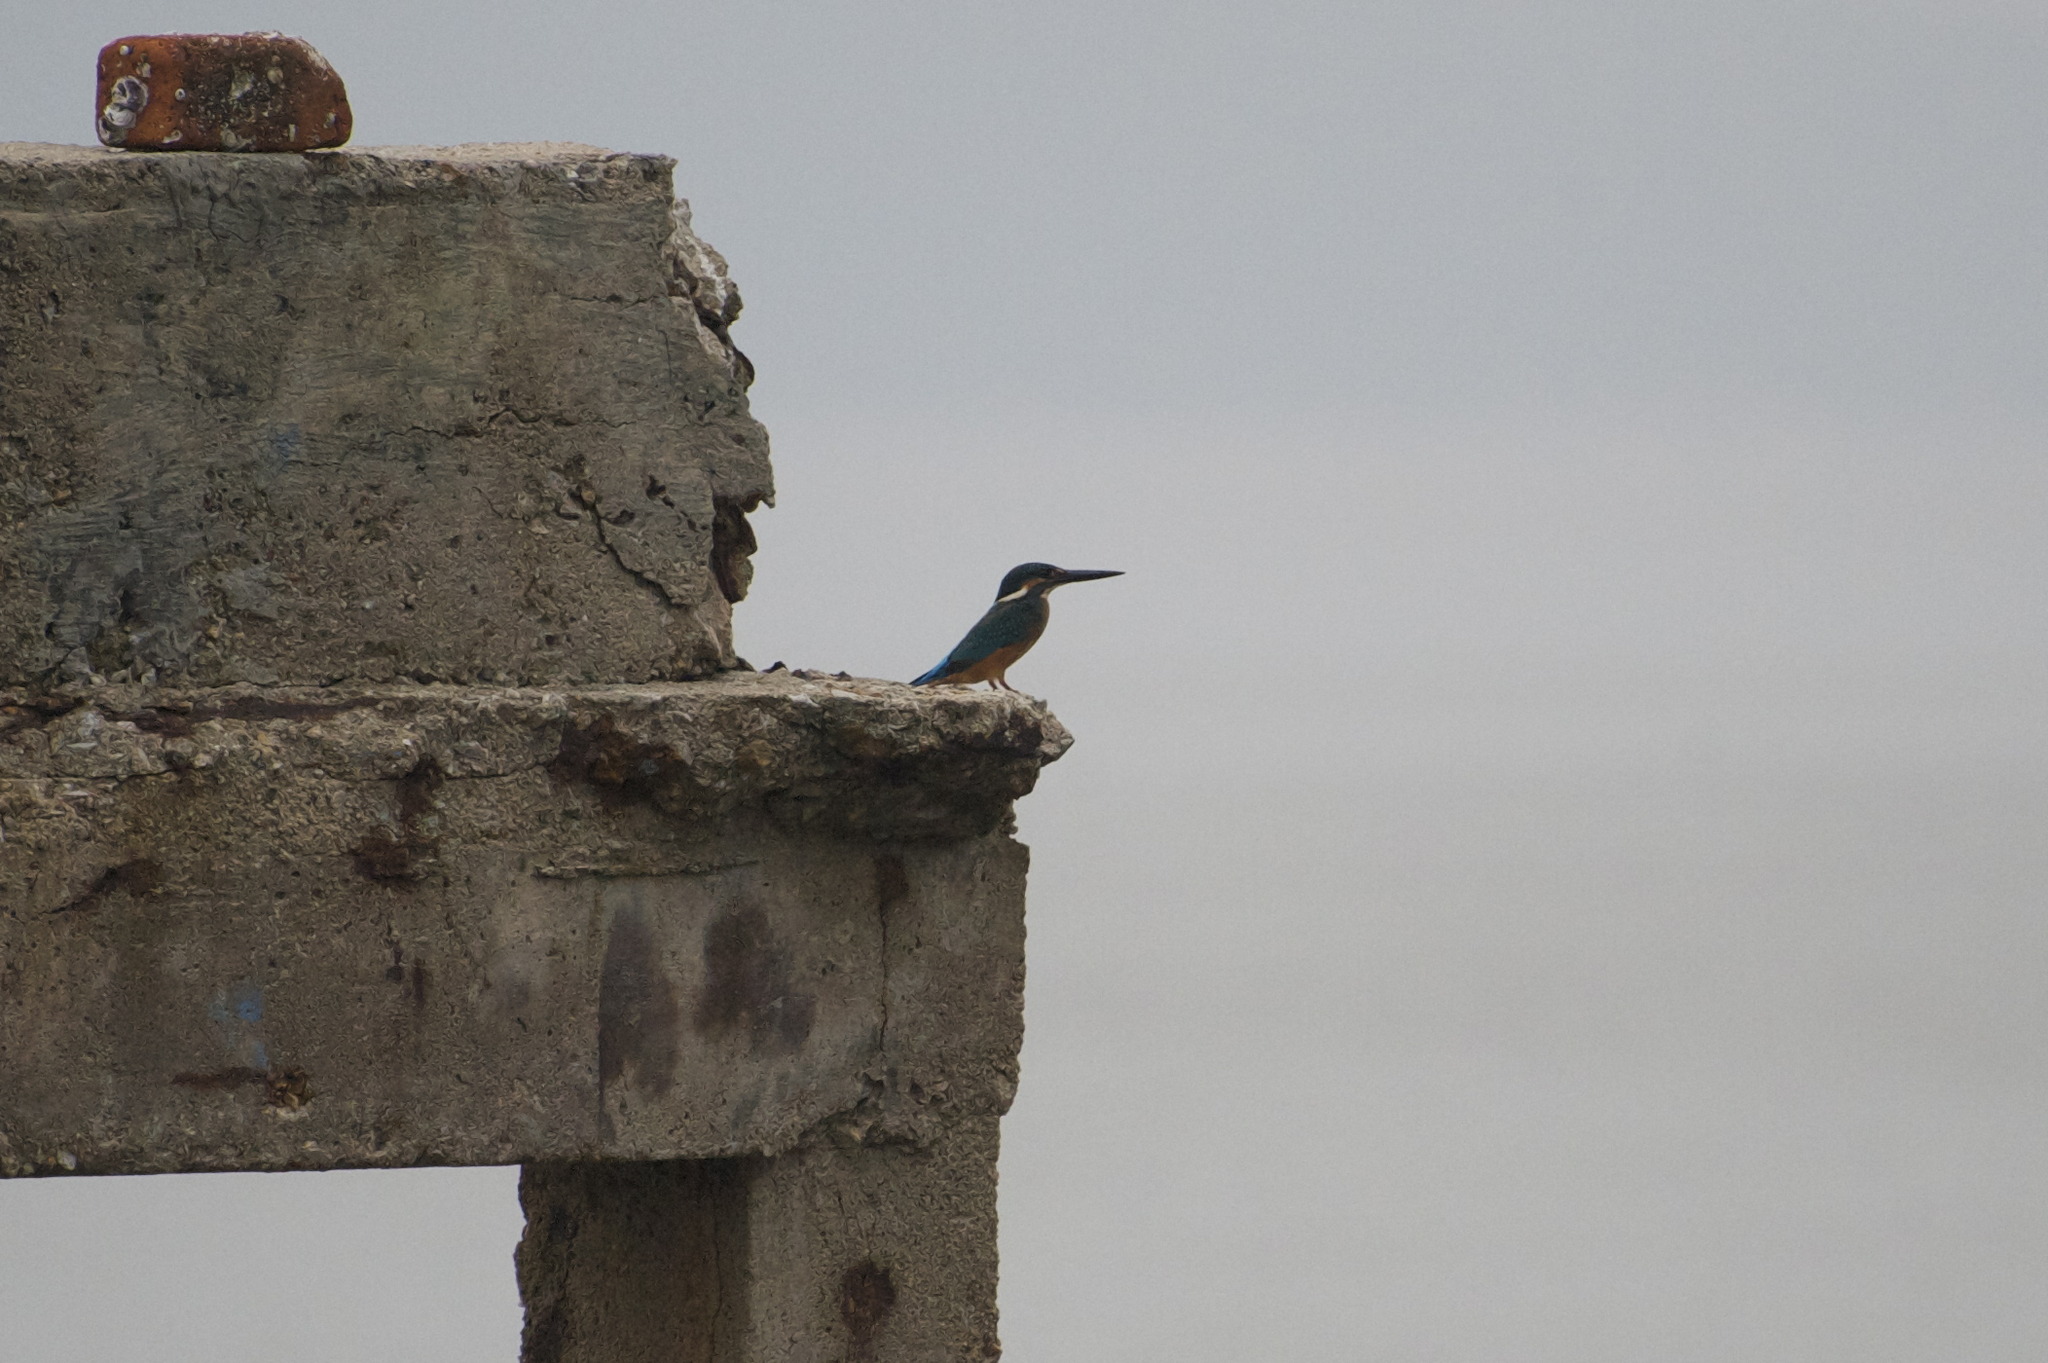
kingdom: Animalia
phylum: Chordata
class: Aves
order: Coraciiformes
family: Alcedinidae
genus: Alcedo
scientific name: Alcedo atthis
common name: Common kingfisher
